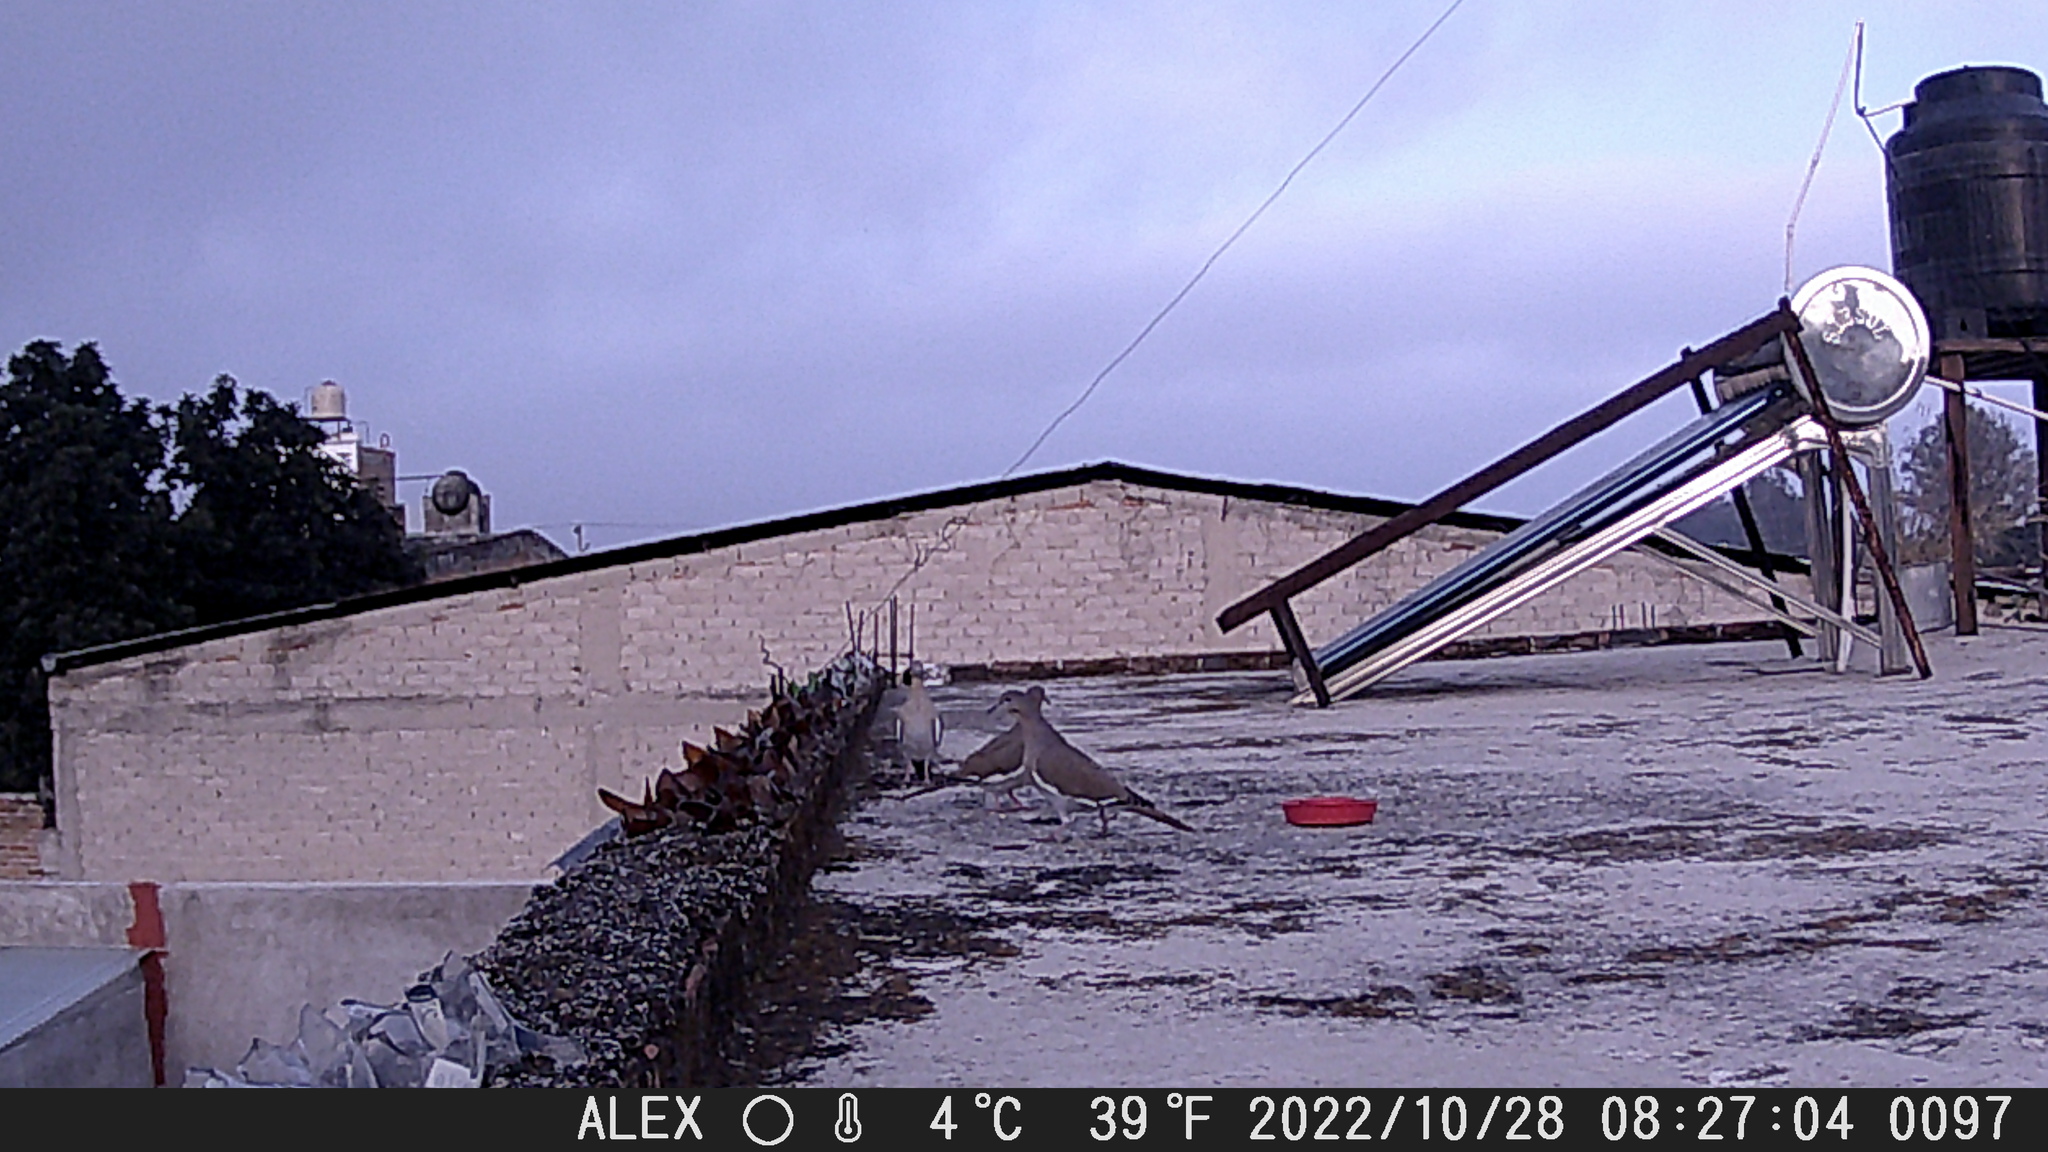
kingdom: Animalia
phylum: Chordata
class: Aves
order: Columbiformes
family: Columbidae
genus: Zenaida
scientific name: Zenaida asiatica
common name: White-winged dove
